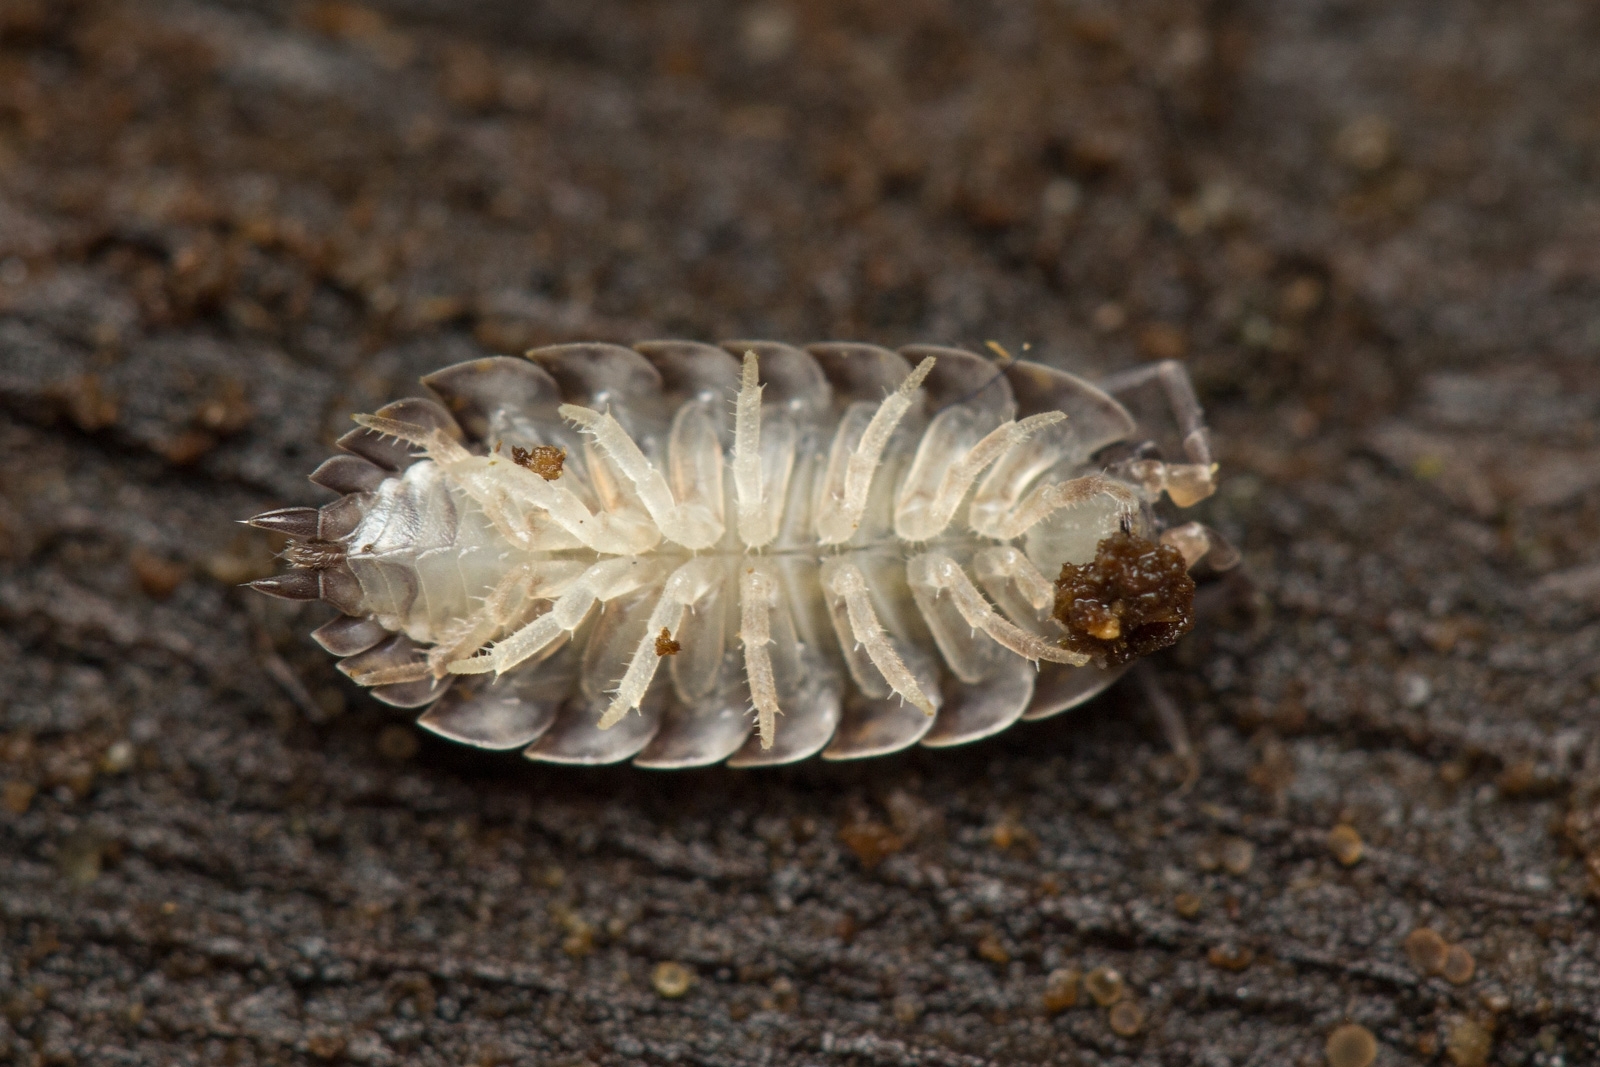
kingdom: Animalia
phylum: Arthropoda
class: Malacostraca
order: Isopoda
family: Trachelipodidae
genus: Trachelipus
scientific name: Trachelipus rathkii
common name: Isopod
